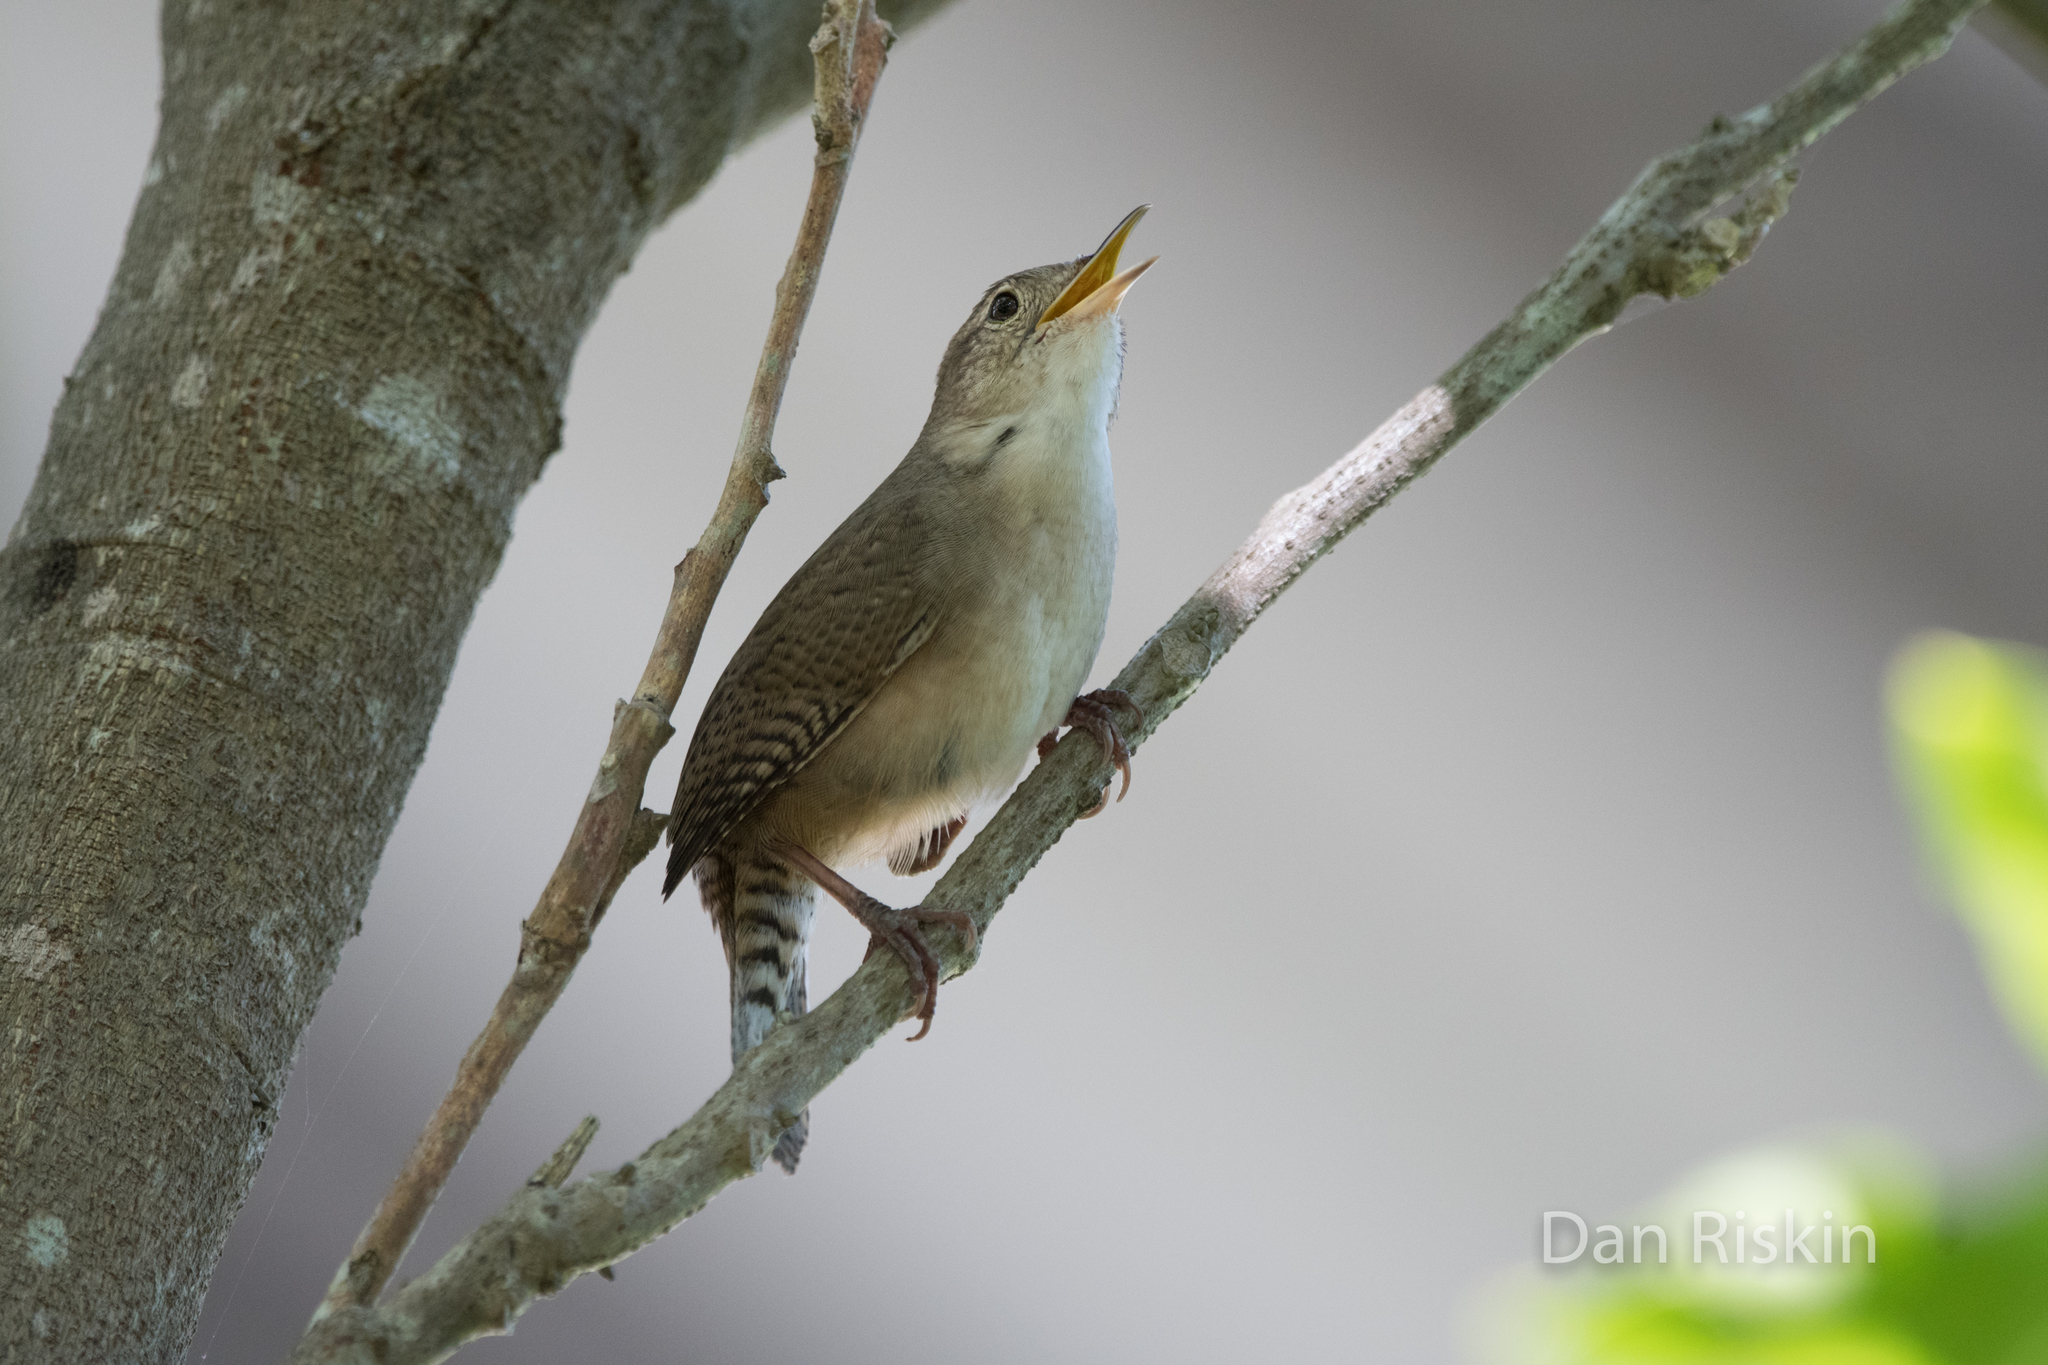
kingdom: Animalia
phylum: Chordata
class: Aves
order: Passeriformes
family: Troglodytidae
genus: Troglodytes
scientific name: Troglodytes aedon
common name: House wren
